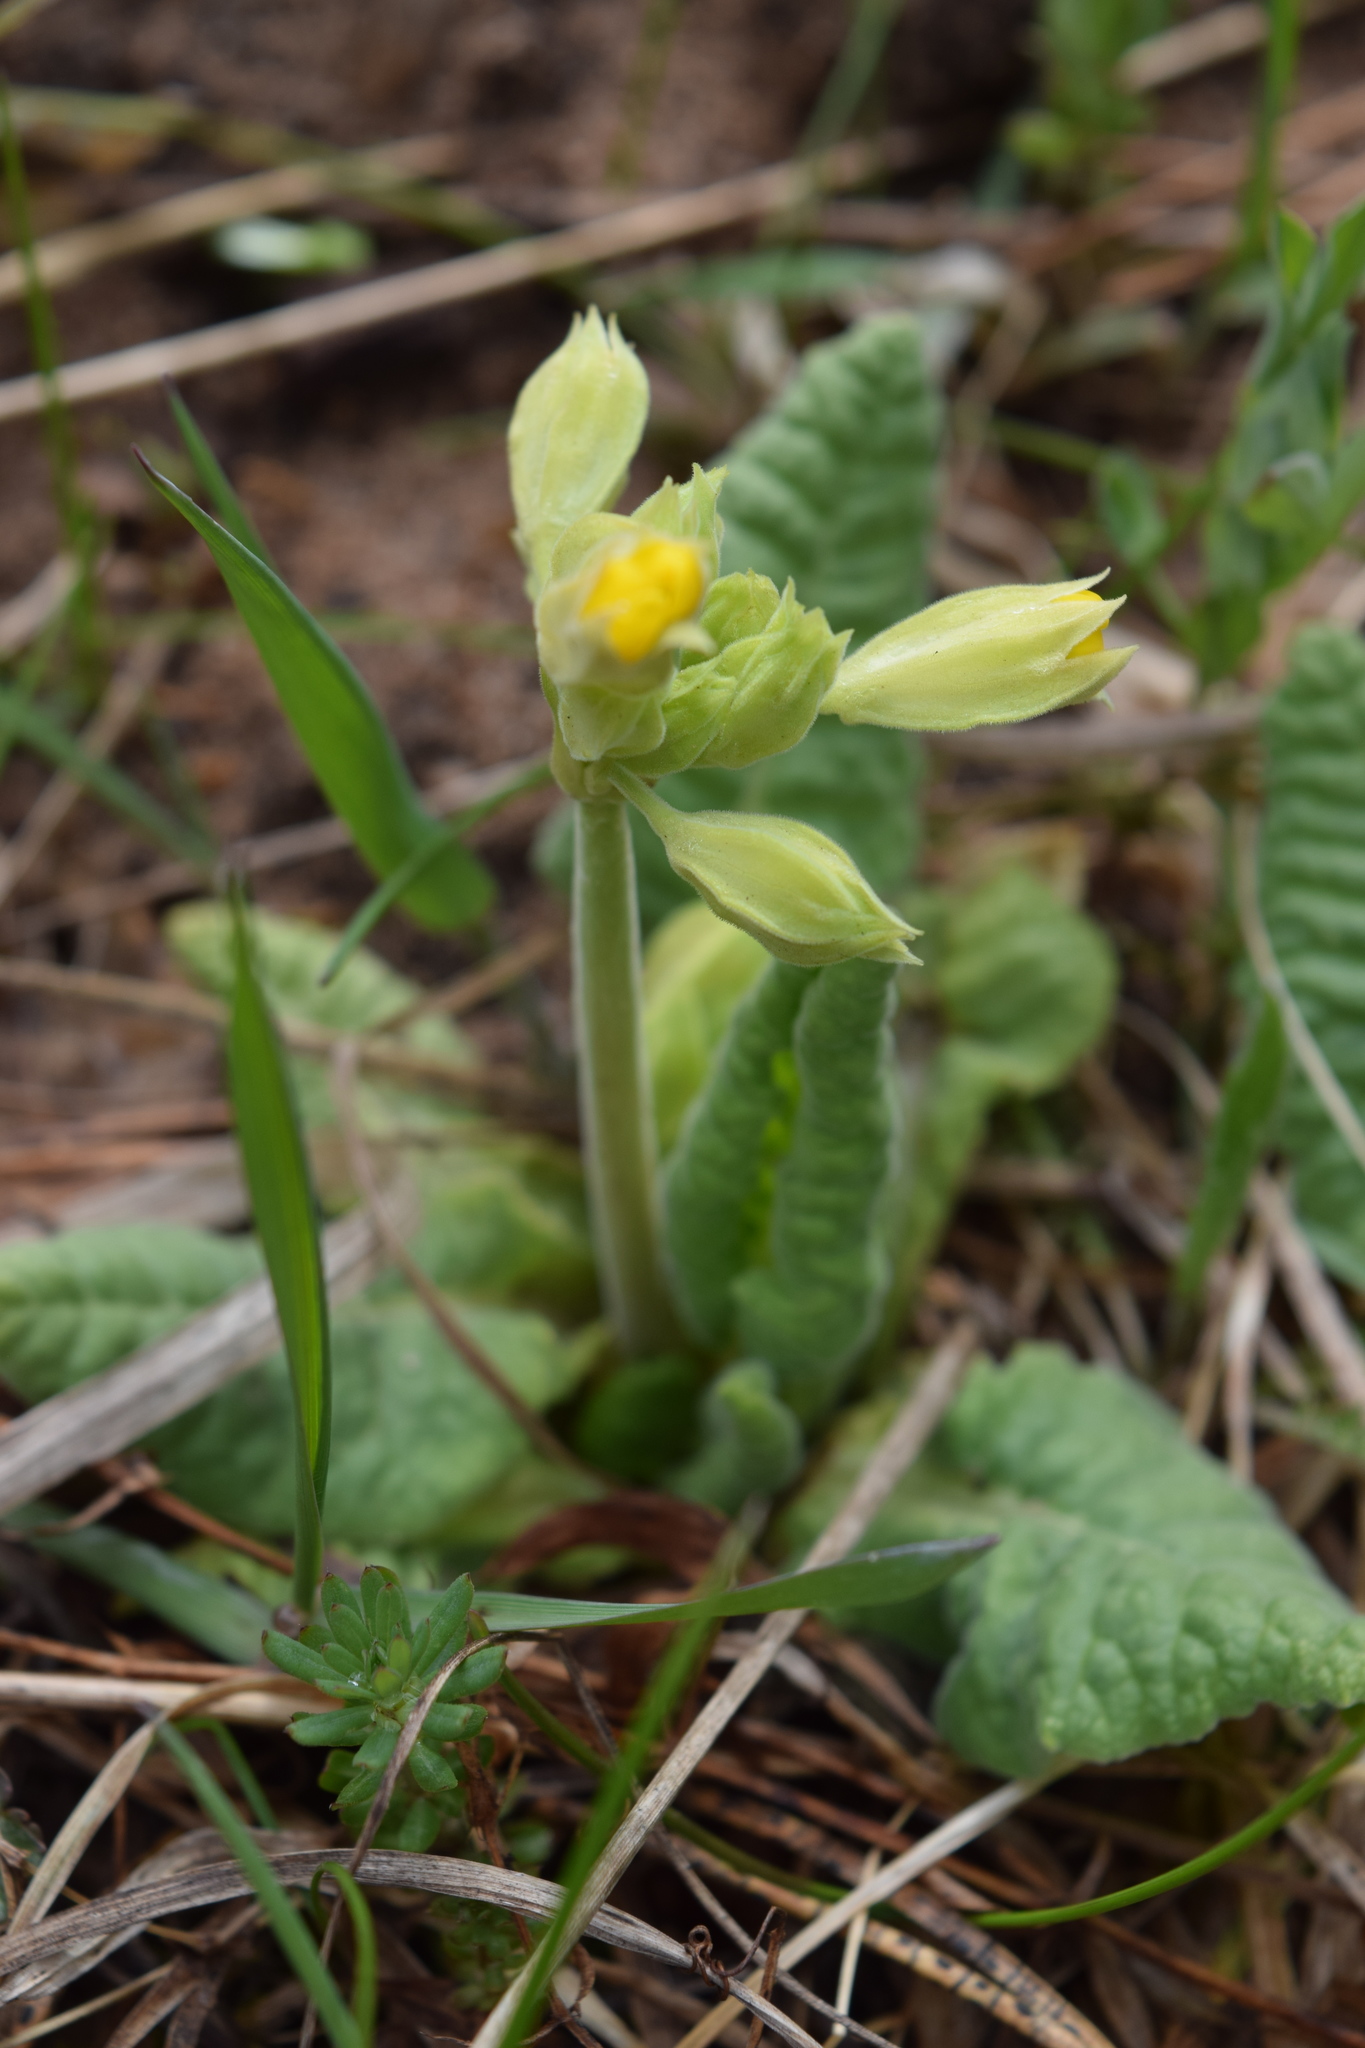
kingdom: Plantae
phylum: Tracheophyta
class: Magnoliopsida
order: Ericales
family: Primulaceae
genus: Primula
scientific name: Primula veris
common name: Cowslip
